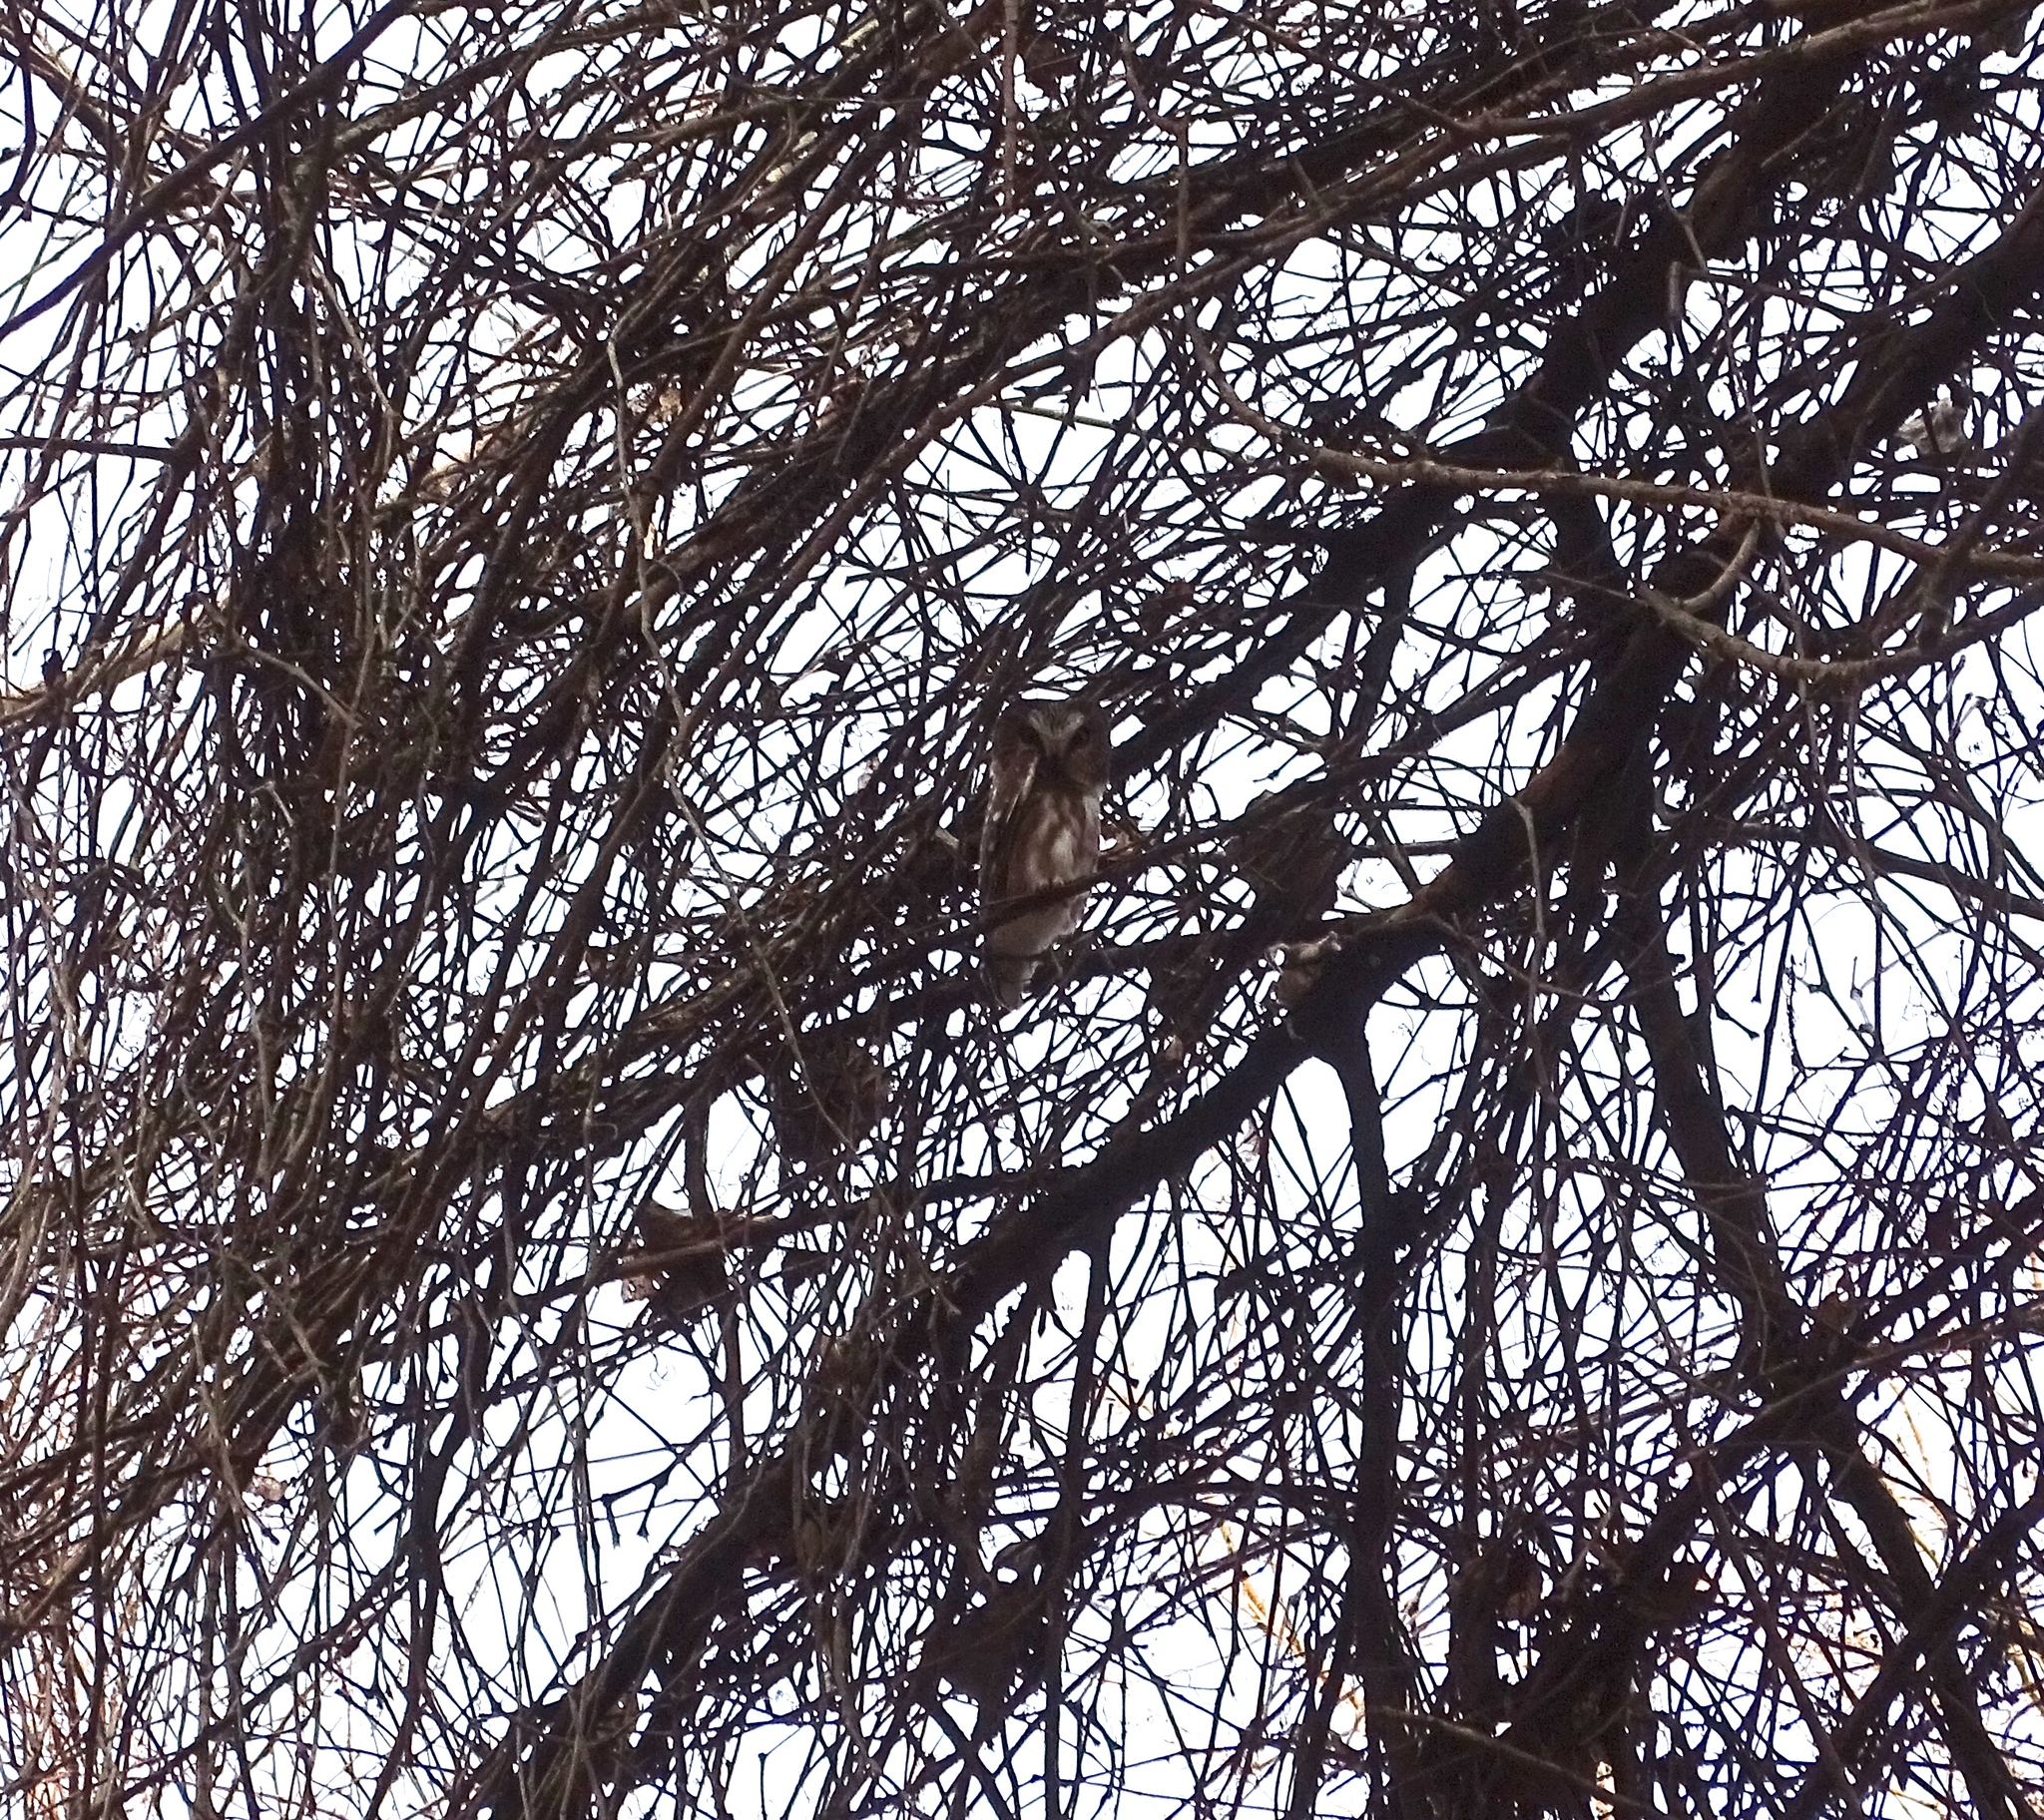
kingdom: Animalia
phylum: Chordata
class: Aves
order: Strigiformes
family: Strigidae
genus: Aegolius
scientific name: Aegolius acadicus
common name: Northern saw-whet owl
